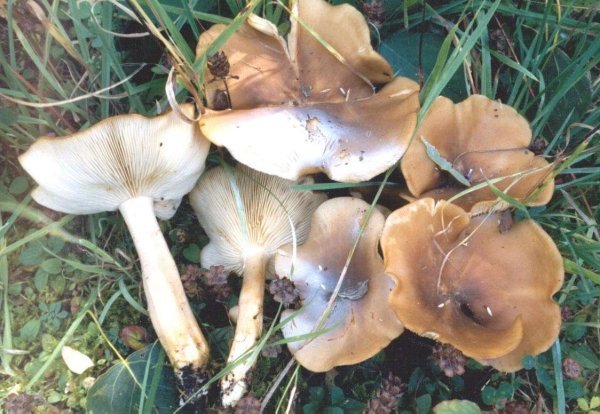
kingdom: Fungi
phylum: Basidiomycota
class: Agaricomycetes
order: Agaricales
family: Lyophyllaceae
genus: Lyophyllum
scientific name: Lyophyllum loricatum
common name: Gristly domecap
